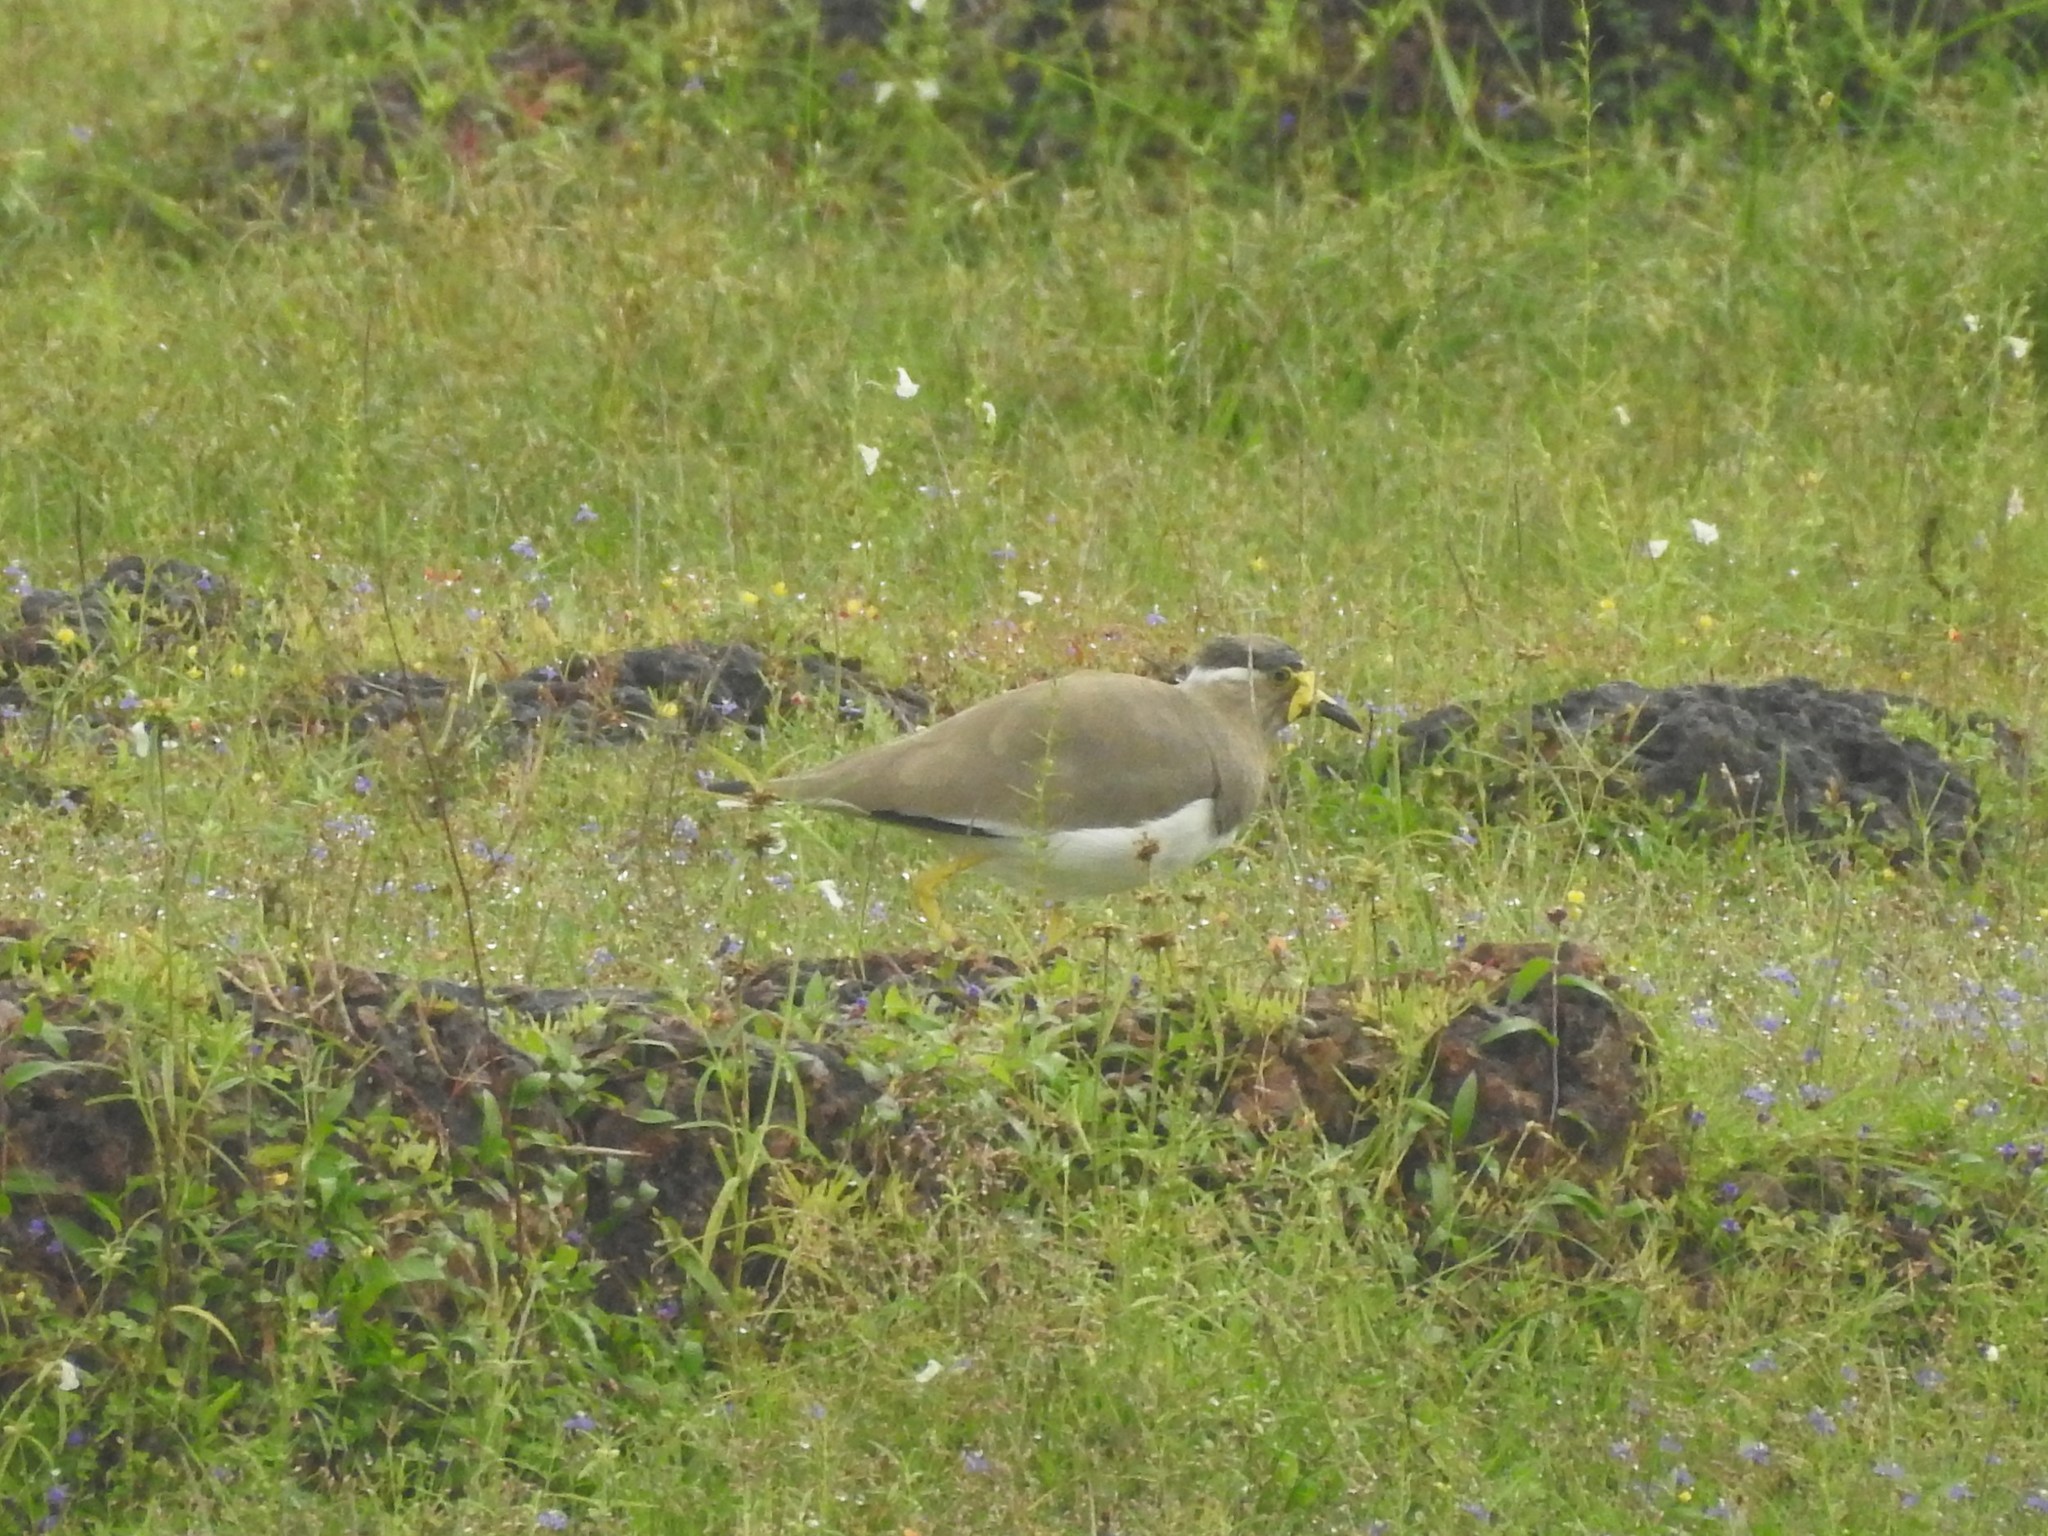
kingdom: Animalia
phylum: Chordata
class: Aves
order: Charadriiformes
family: Charadriidae
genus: Vanellus
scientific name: Vanellus malabaricus
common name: Yellow-wattled lapwing
